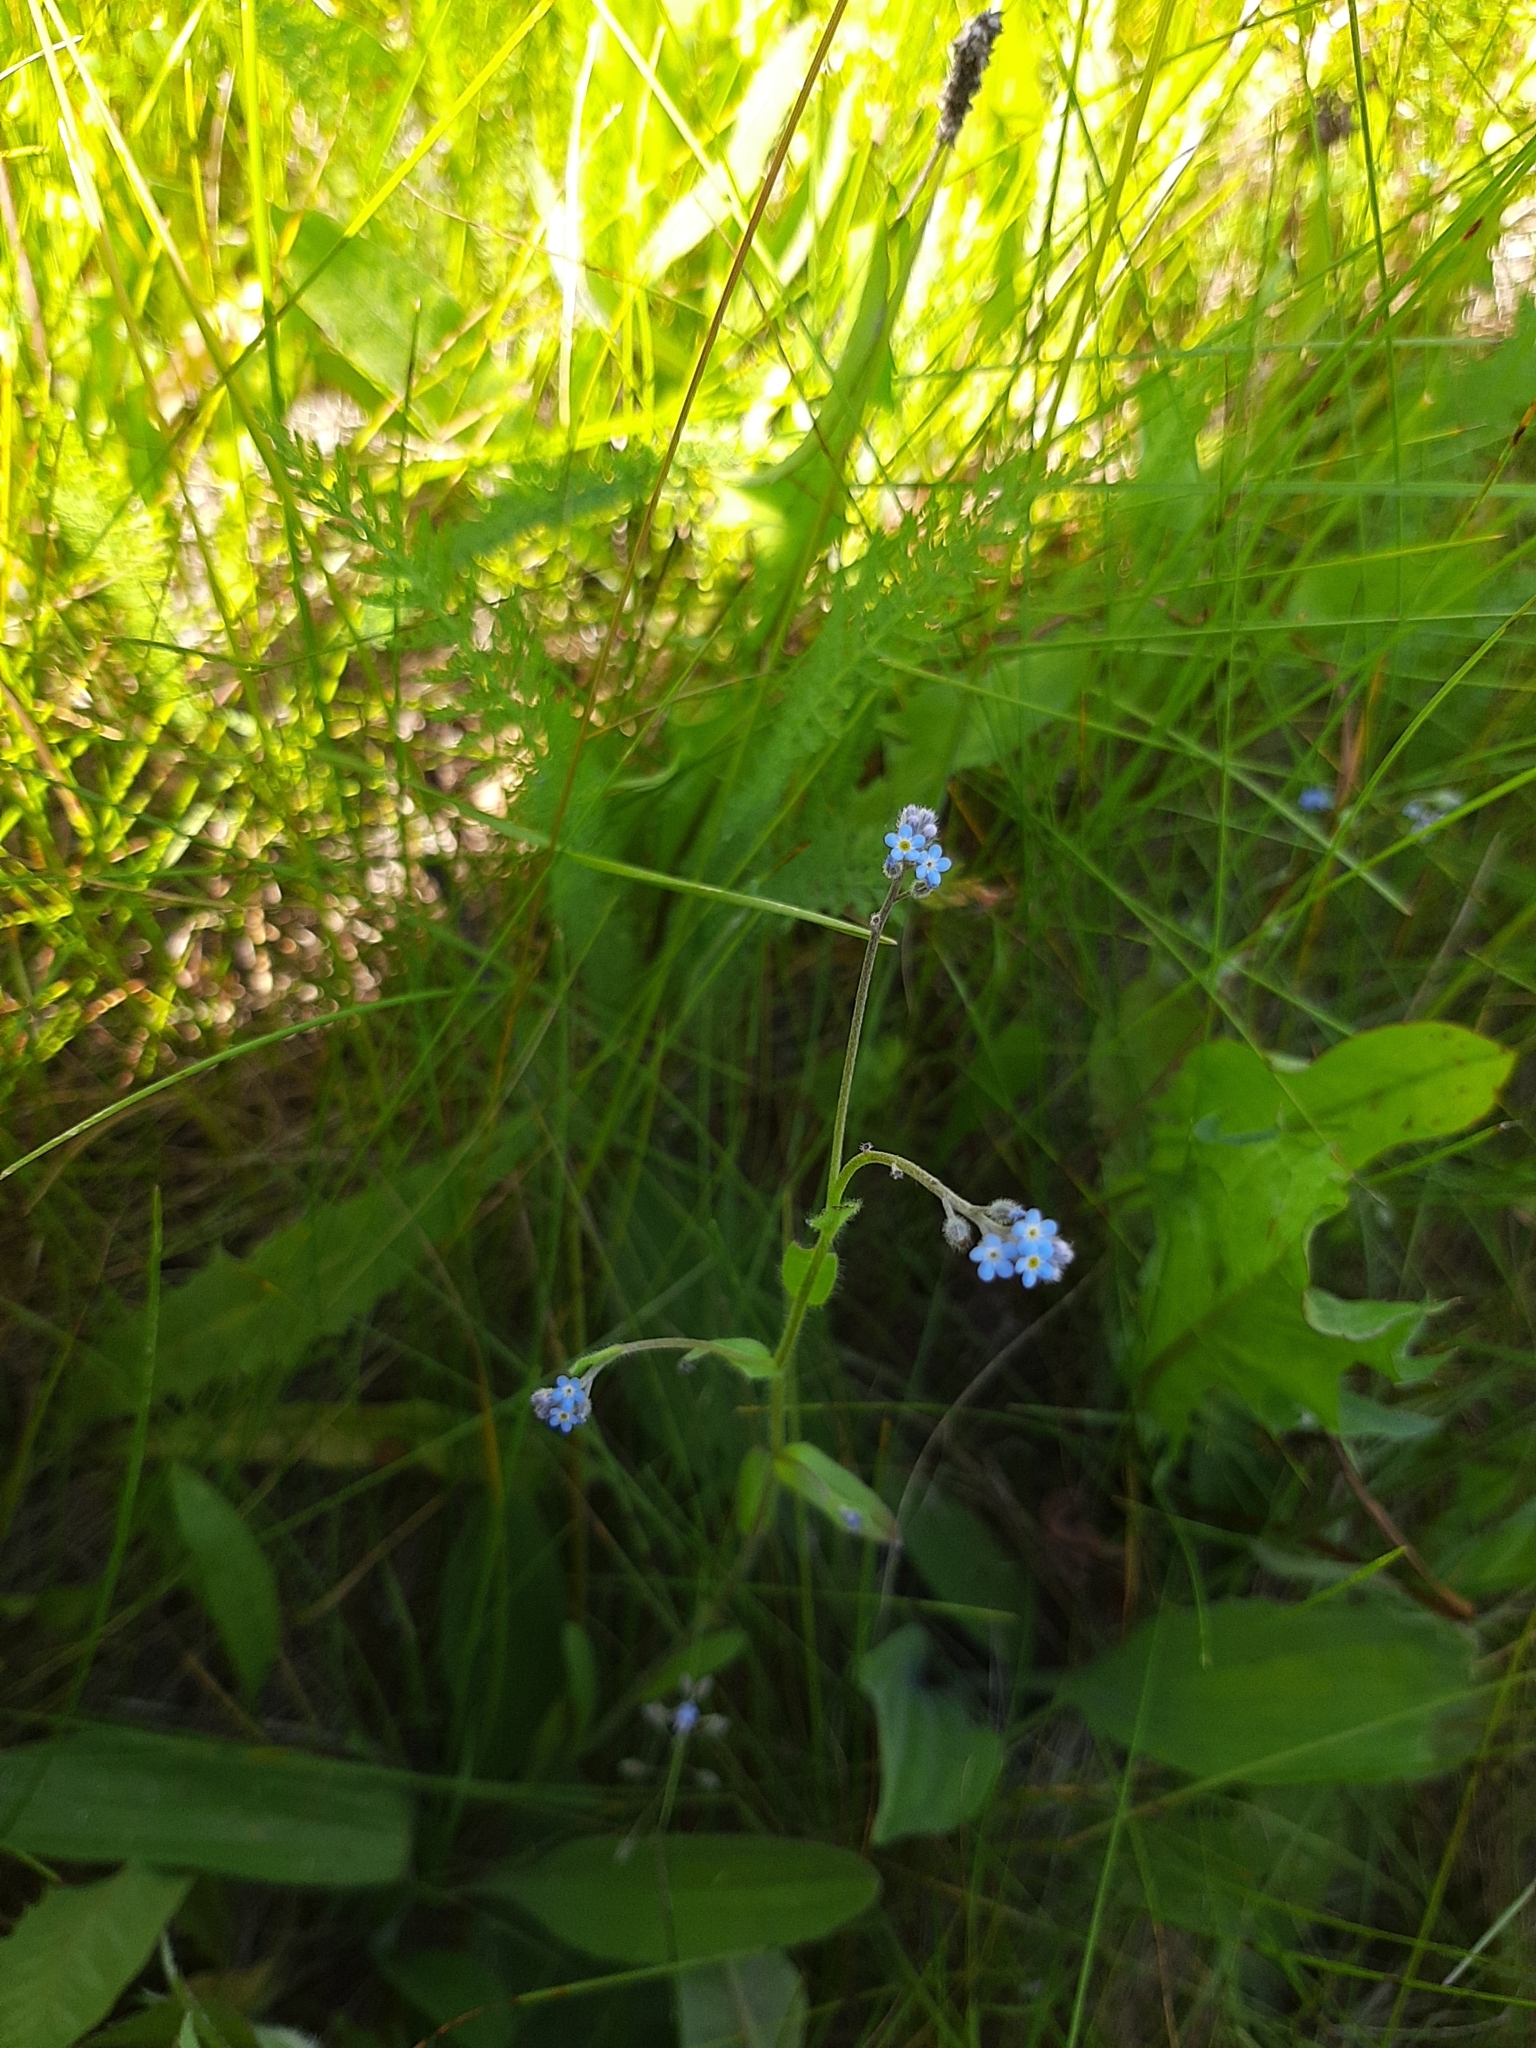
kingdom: Plantae
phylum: Tracheophyta
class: Magnoliopsida
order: Boraginales
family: Boraginaceae
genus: Myosotis
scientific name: Myosotis arvensis
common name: Field forget-me-not
